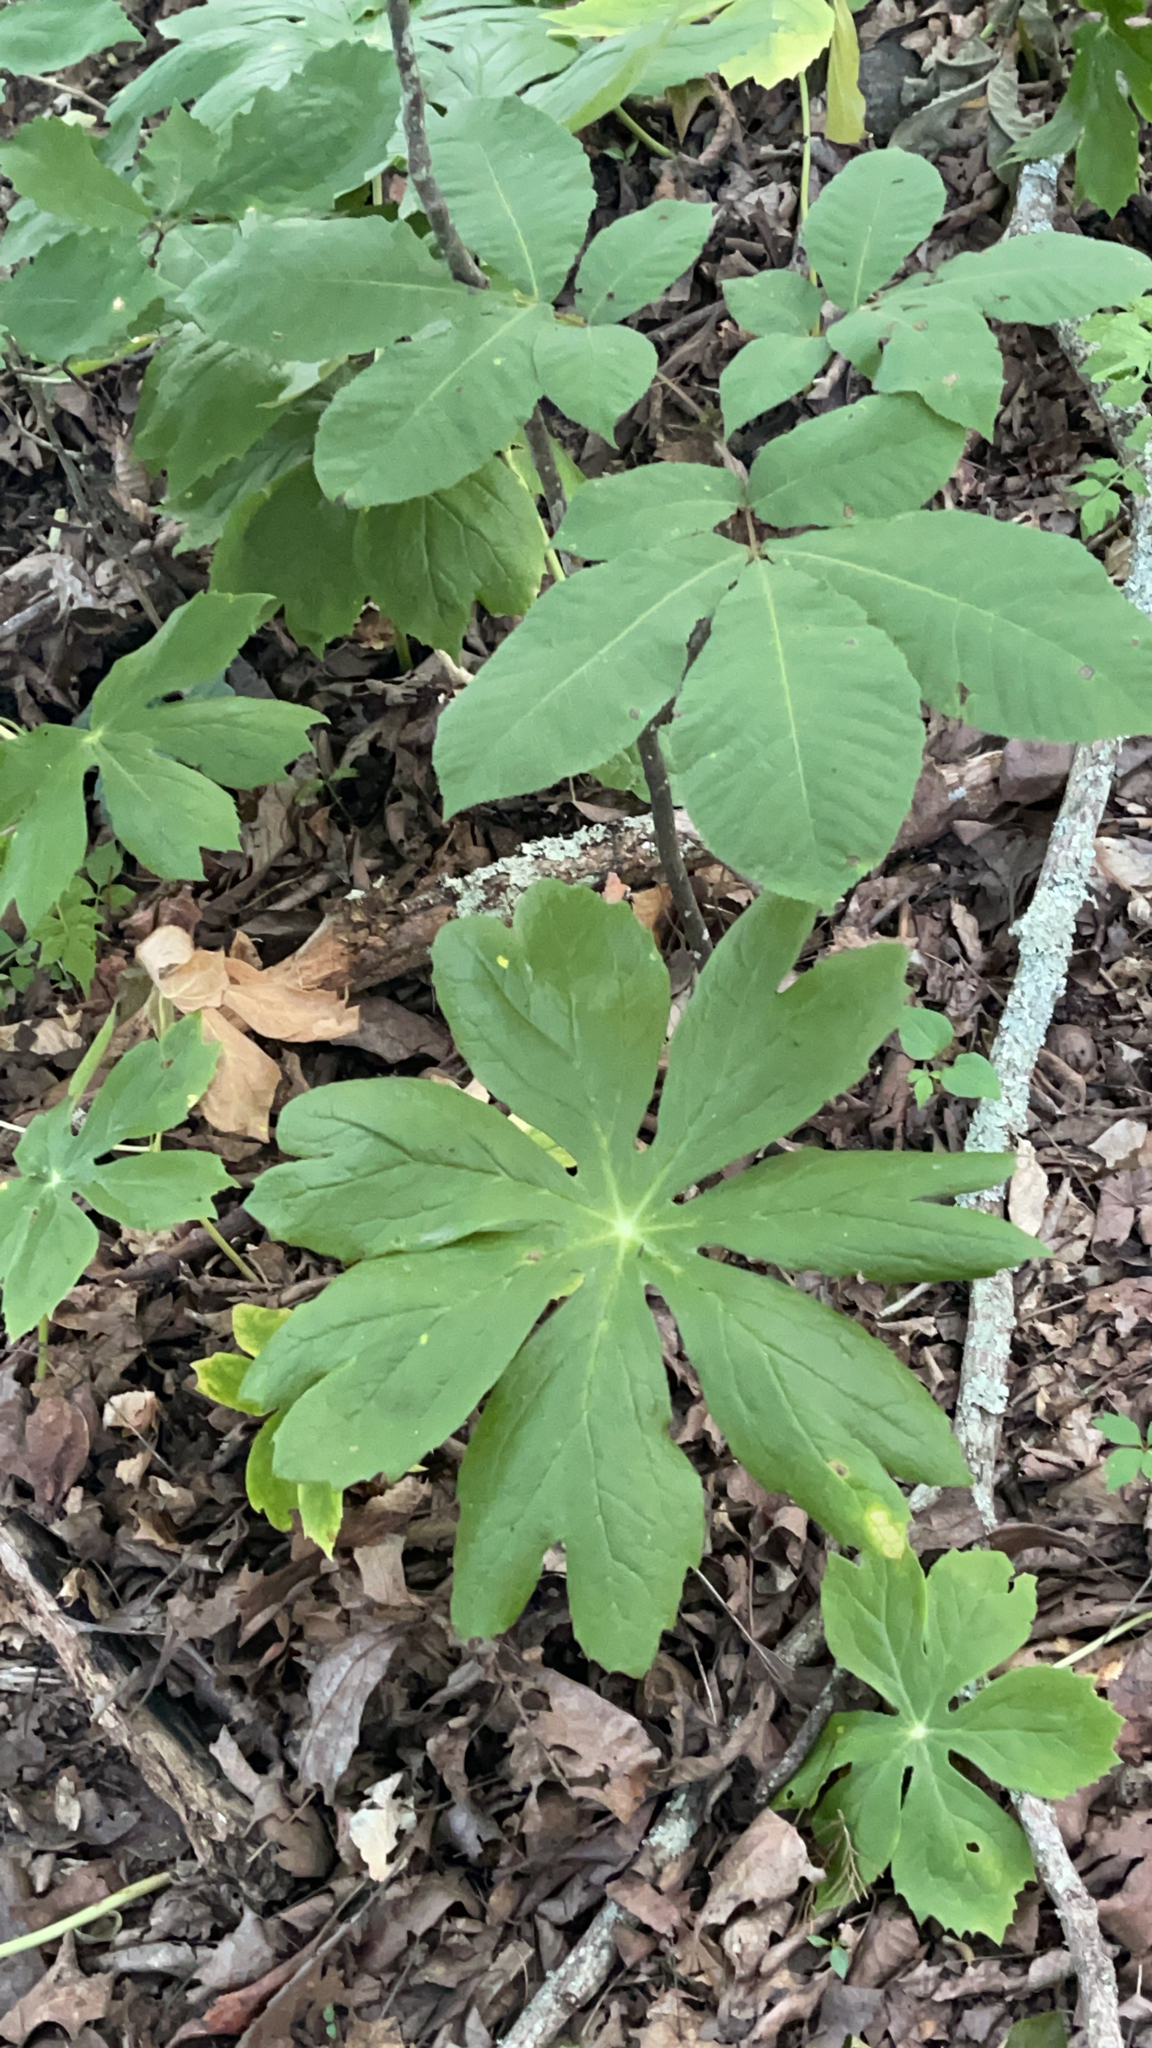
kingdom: Plantae
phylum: Tracheophyta
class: Magnoliopsida
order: Ranunculales
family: Berberidaceae
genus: Podophyllum
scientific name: Podophyllum peltatum
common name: Wild mandrake
